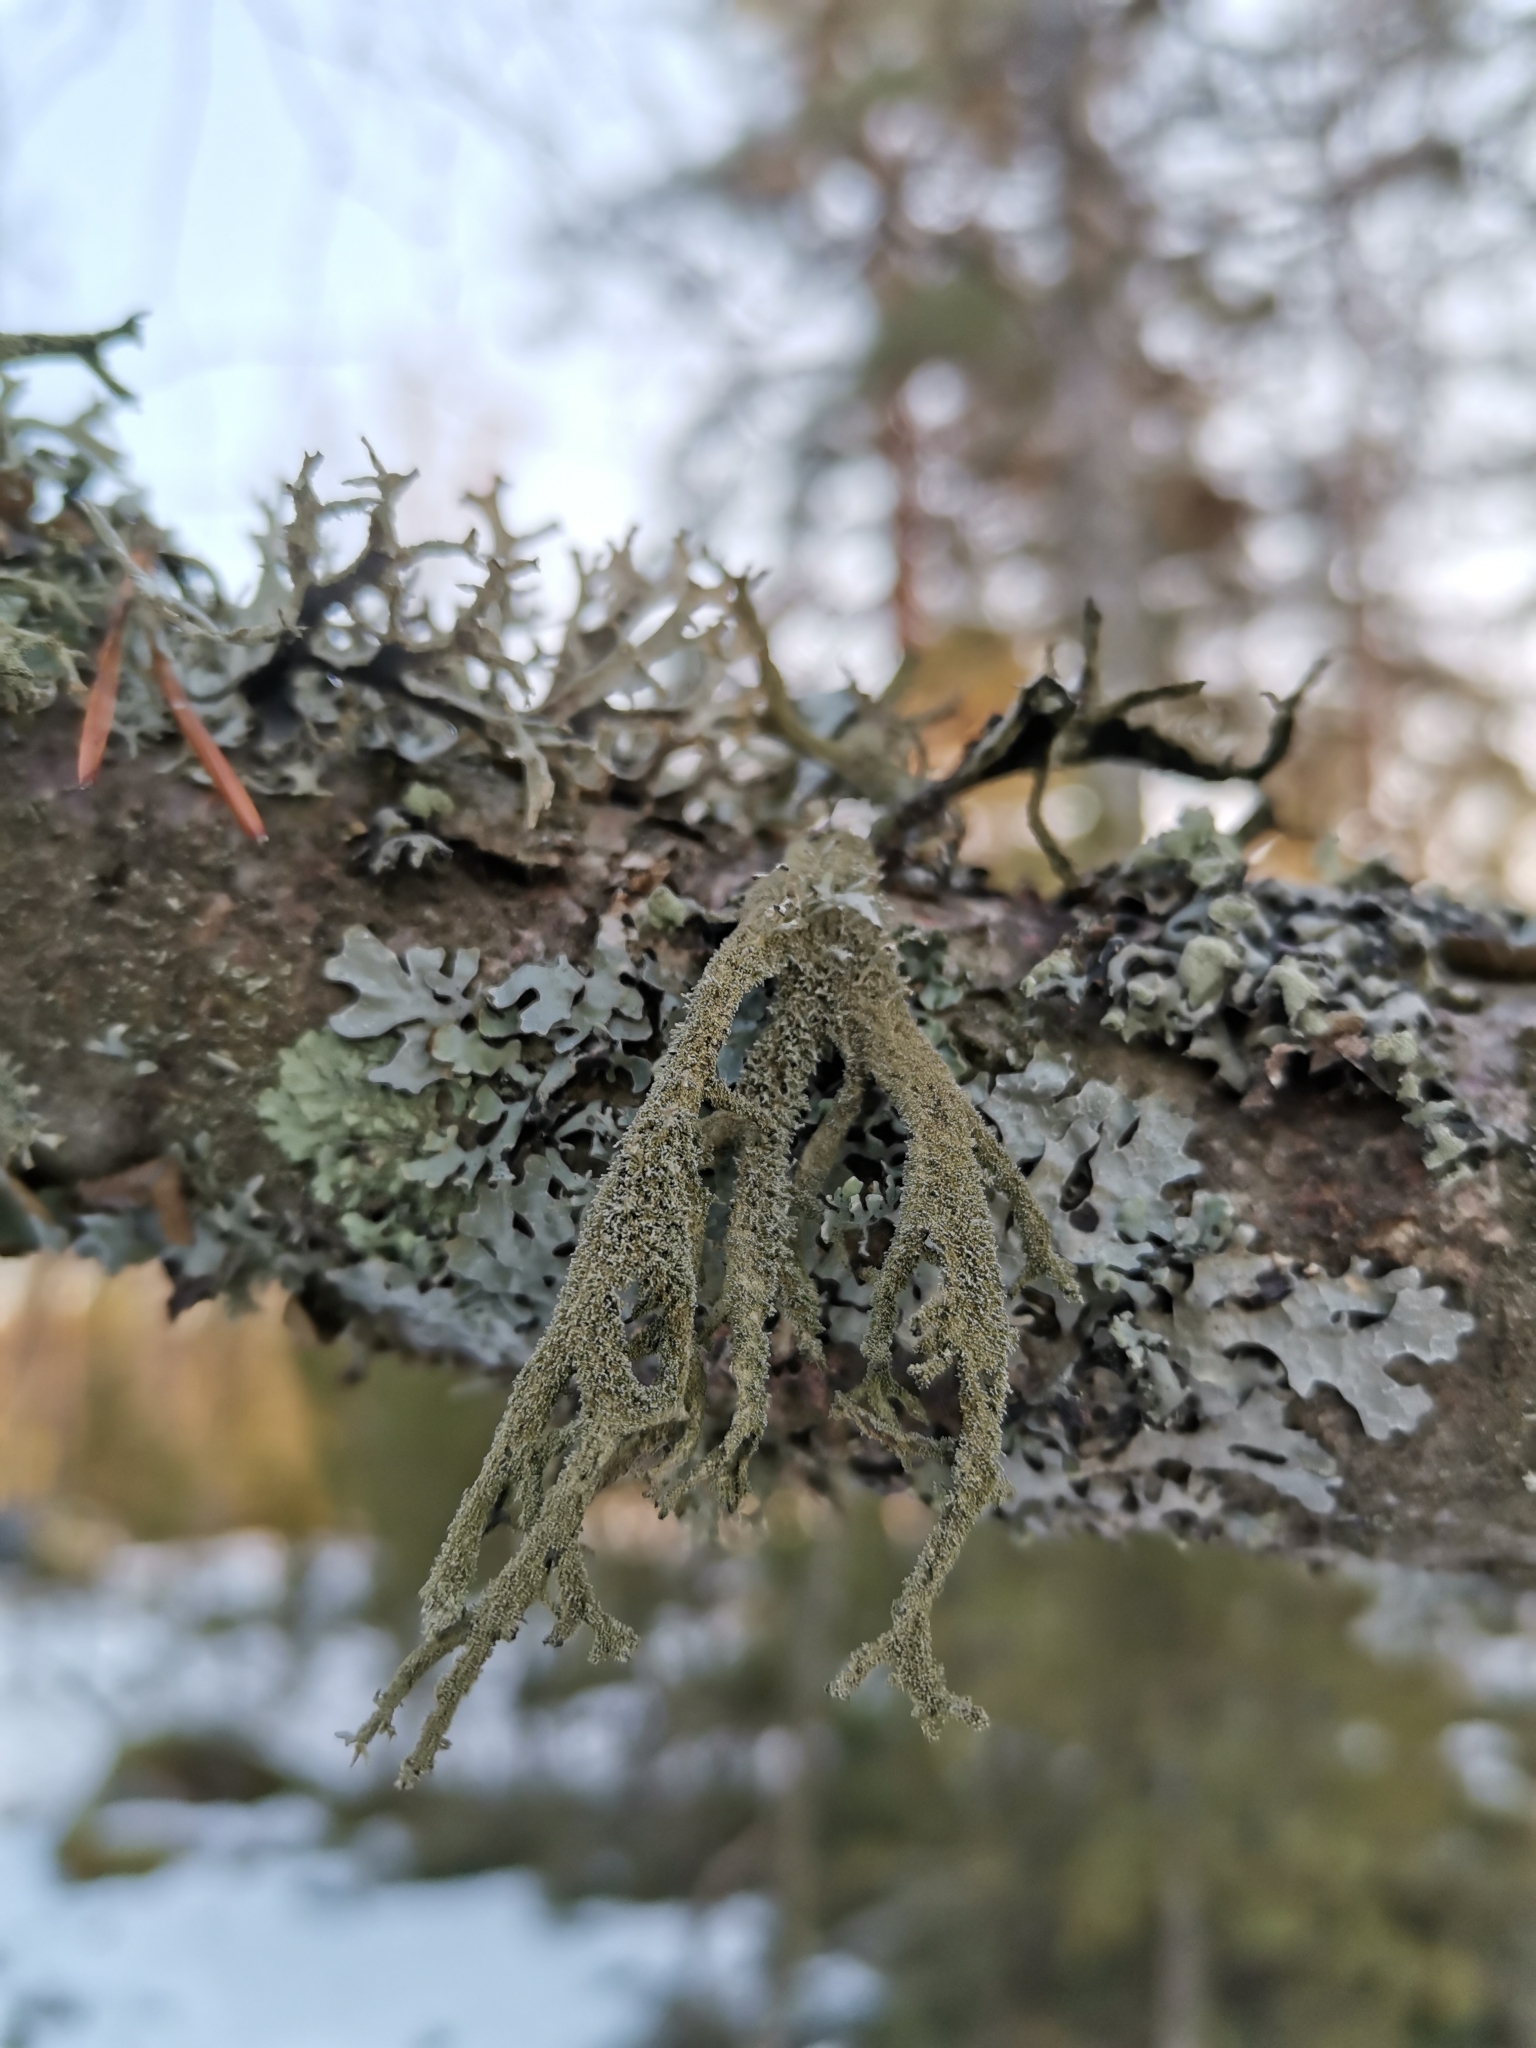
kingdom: Fungi
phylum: Ascomycota
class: Lecanoromycetes
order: Lecanorales
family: Parmeliaceae
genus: Pseudevernia
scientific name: Pseudevernia furfuracea
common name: Tree moss
